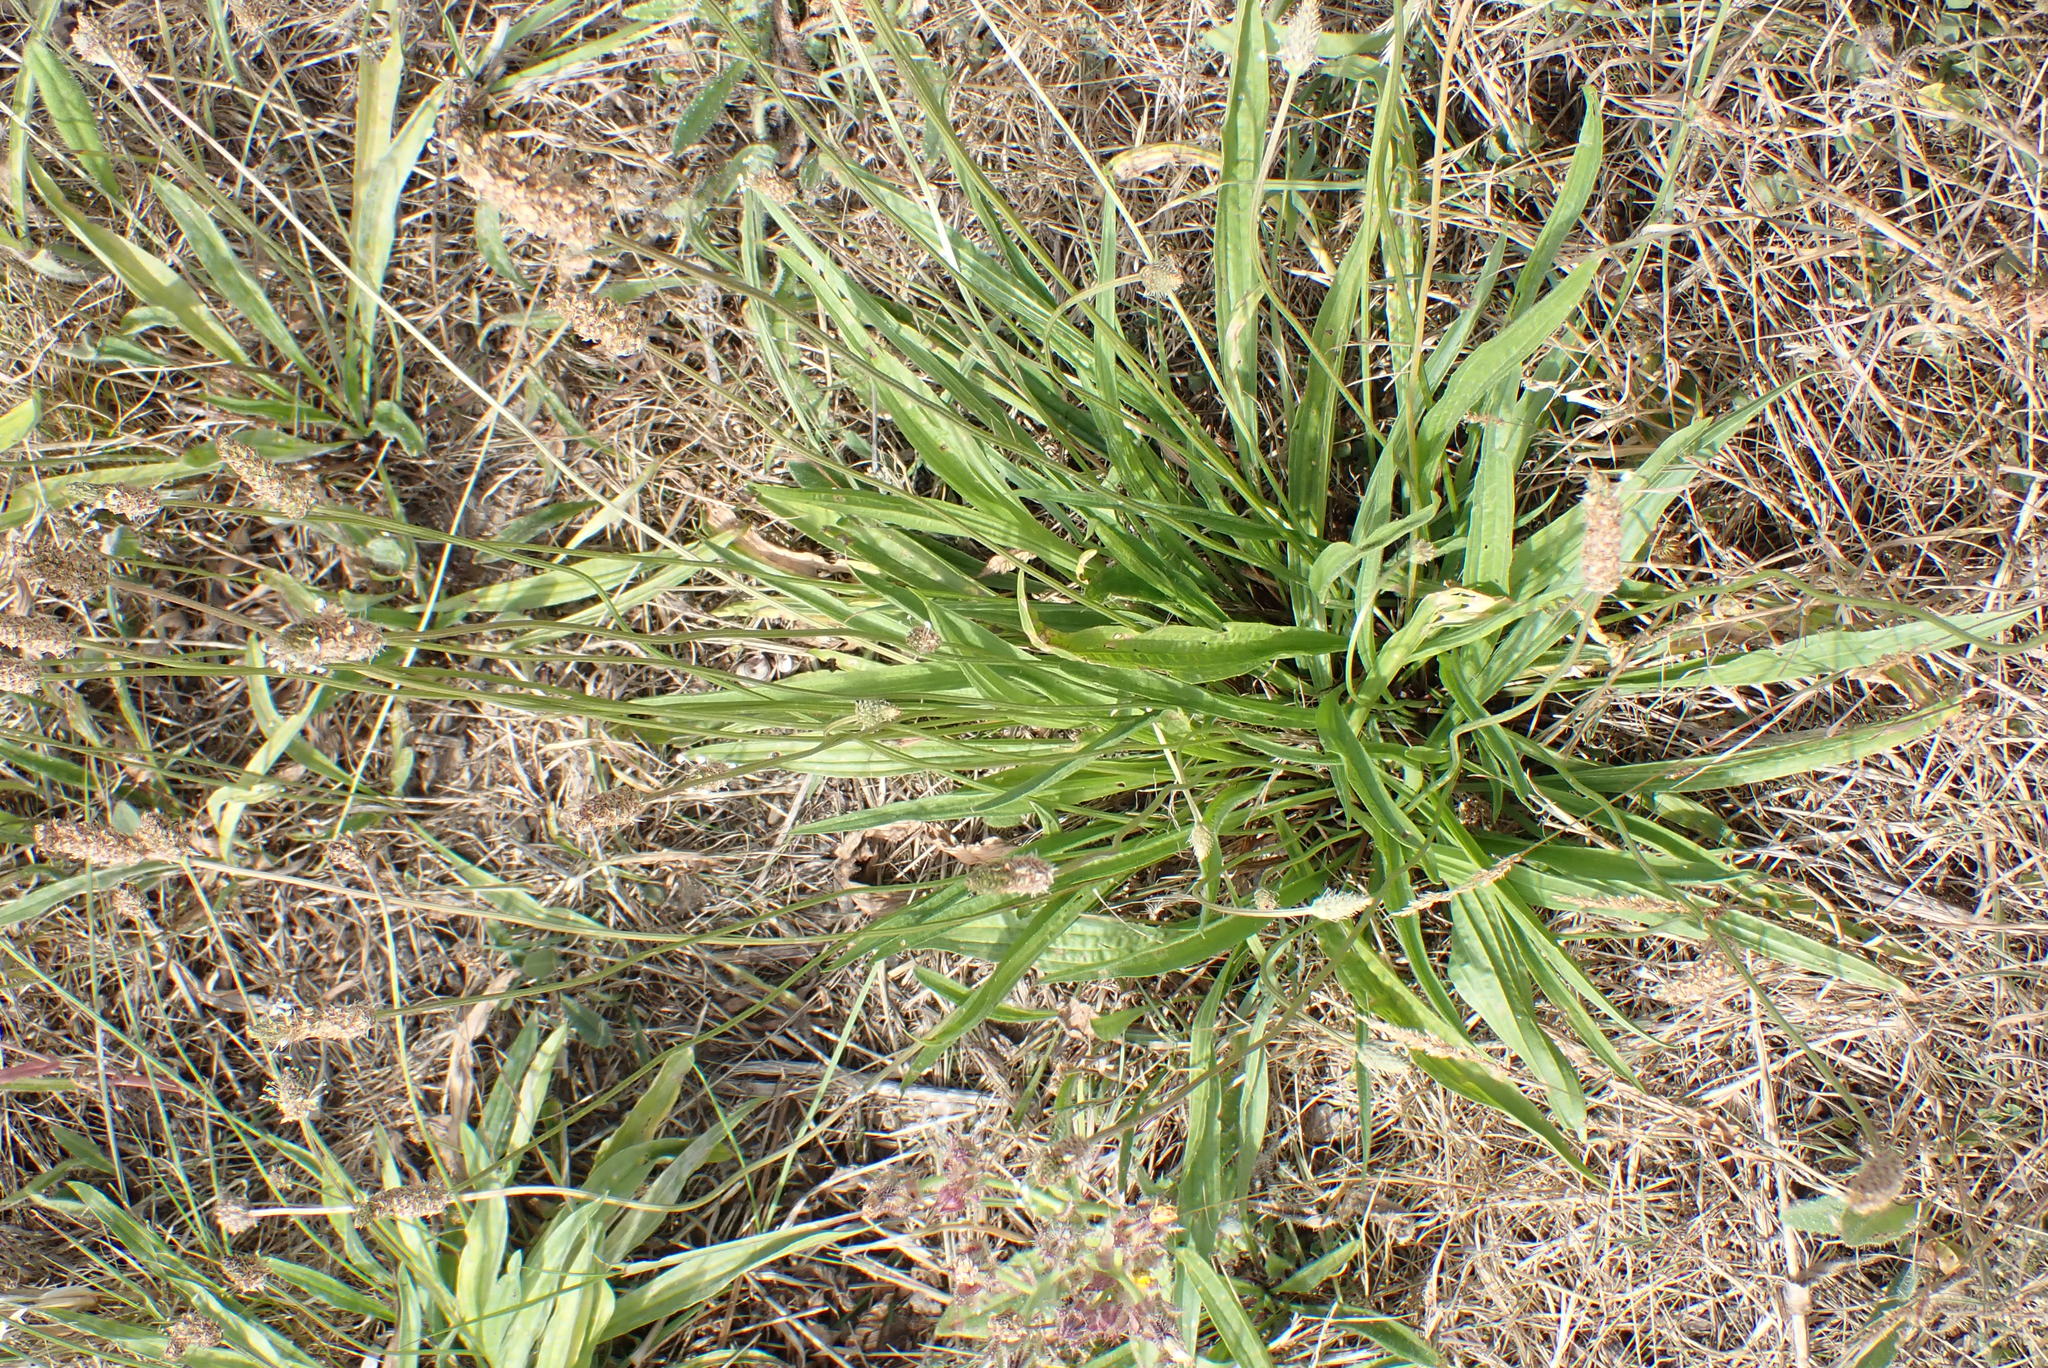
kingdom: Plantae
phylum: Tracheophyta
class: Magnoliopsida
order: Lamiales
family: Plantaginaceae
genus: Plantago
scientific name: Plantago lanceolata
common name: Ribwort plantain
